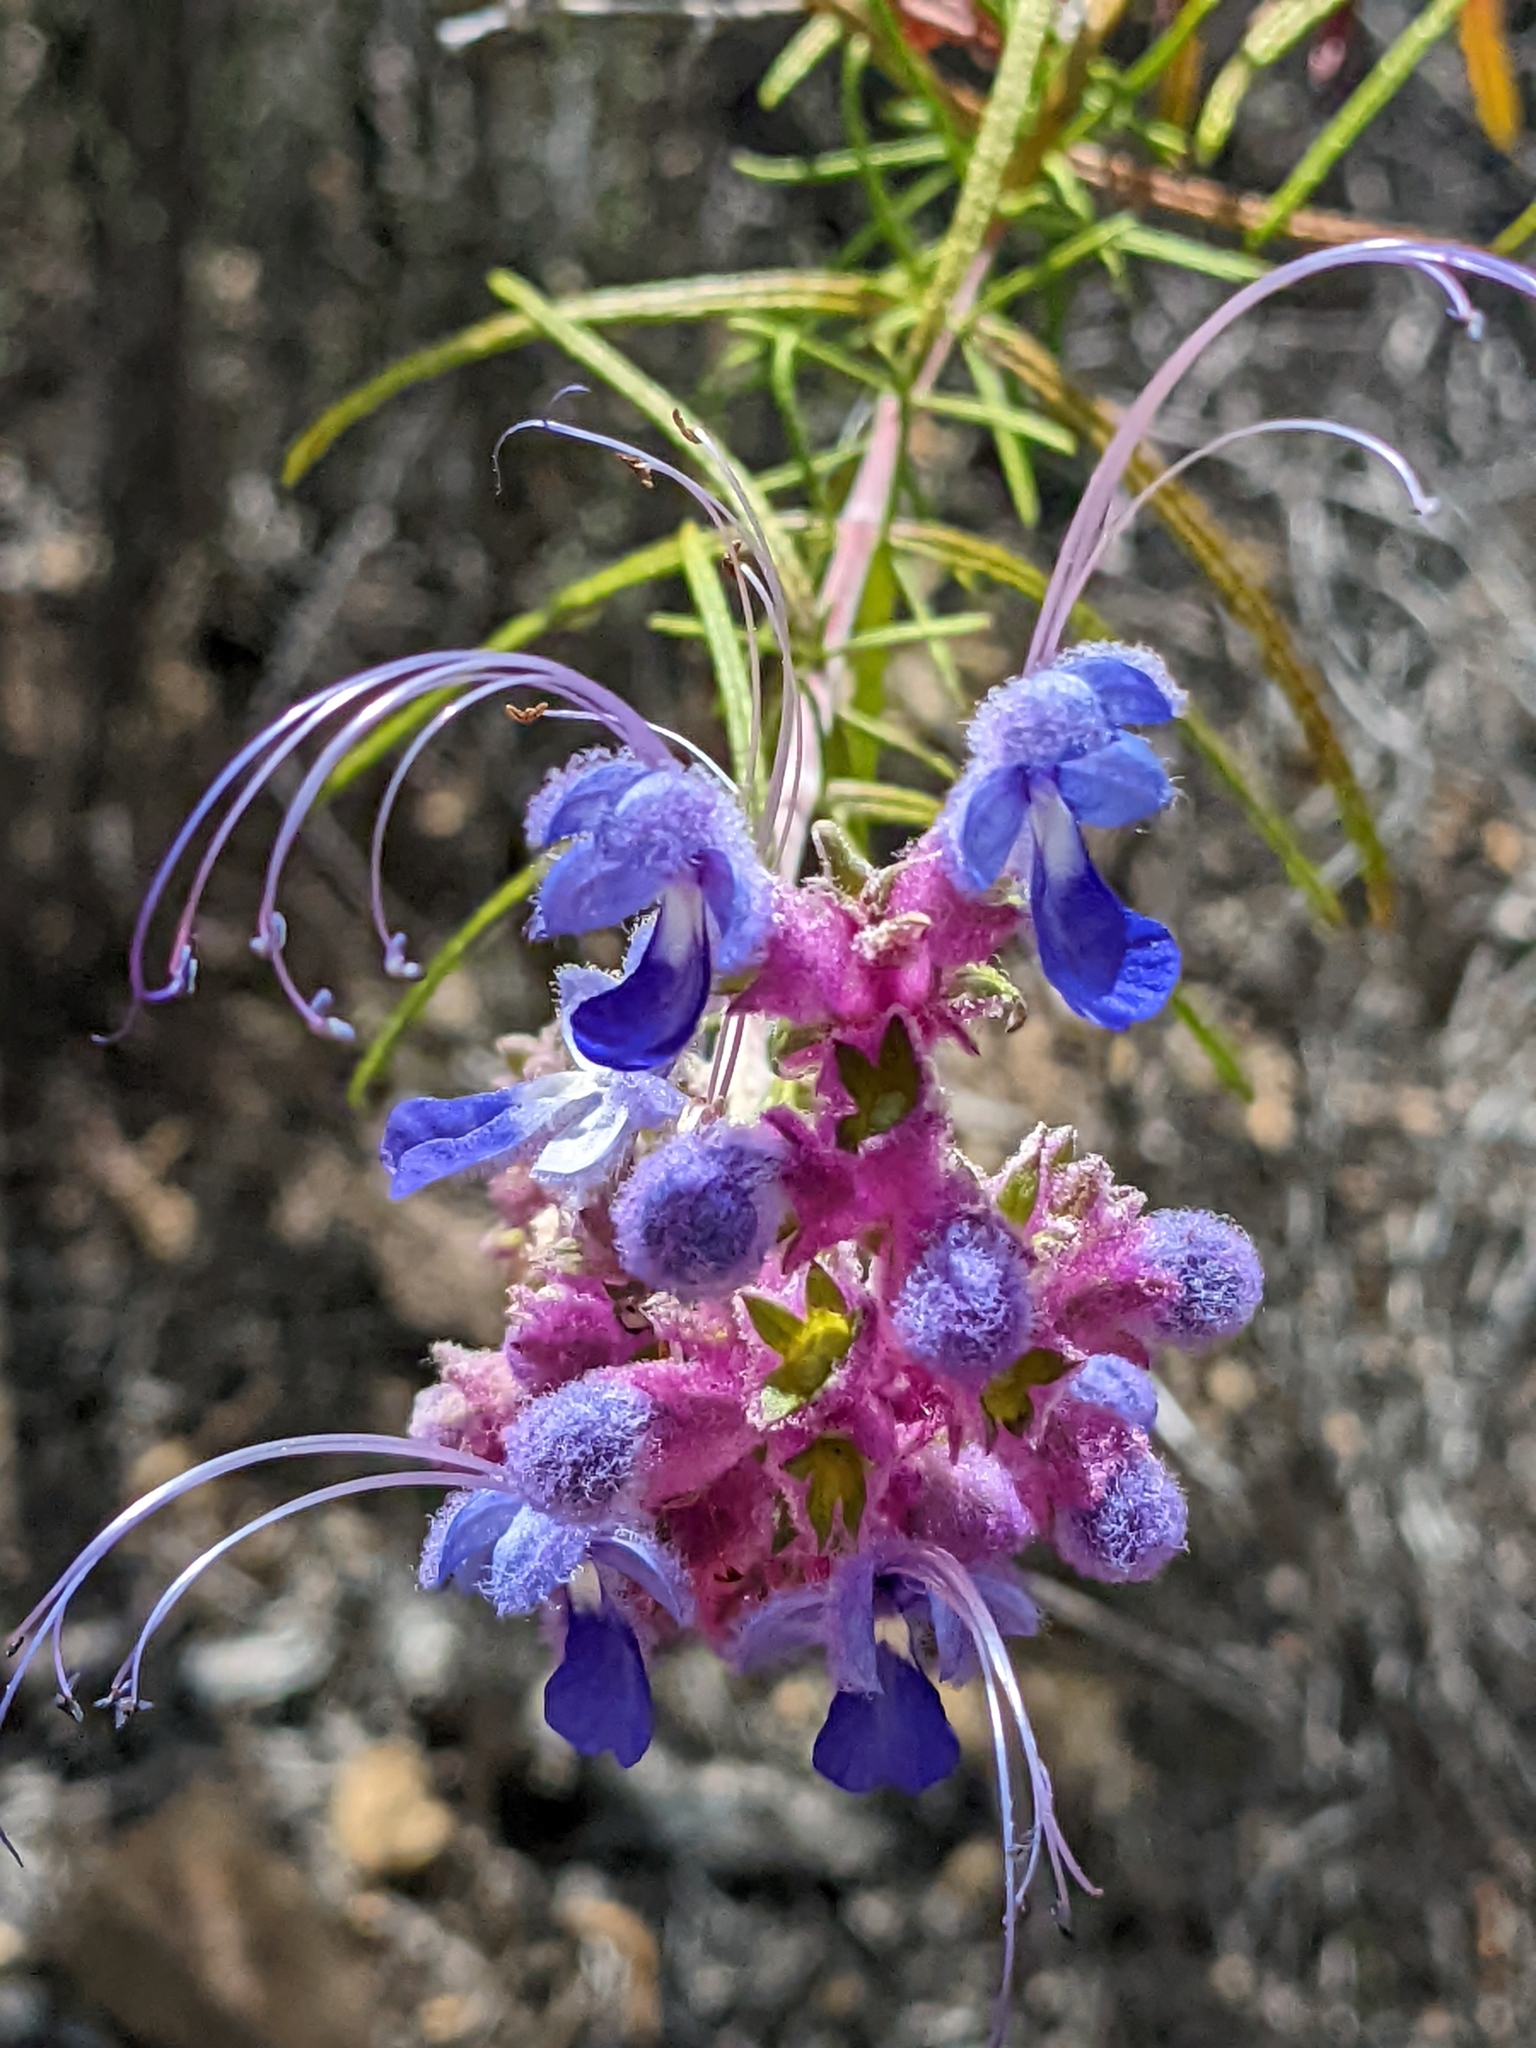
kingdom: Plantae
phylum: Tracheophyta
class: Magnoliopsida
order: Lamiales
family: Lamiaceae
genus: Trichostema
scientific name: Trichostema lanatum
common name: Woolly bluecurls
